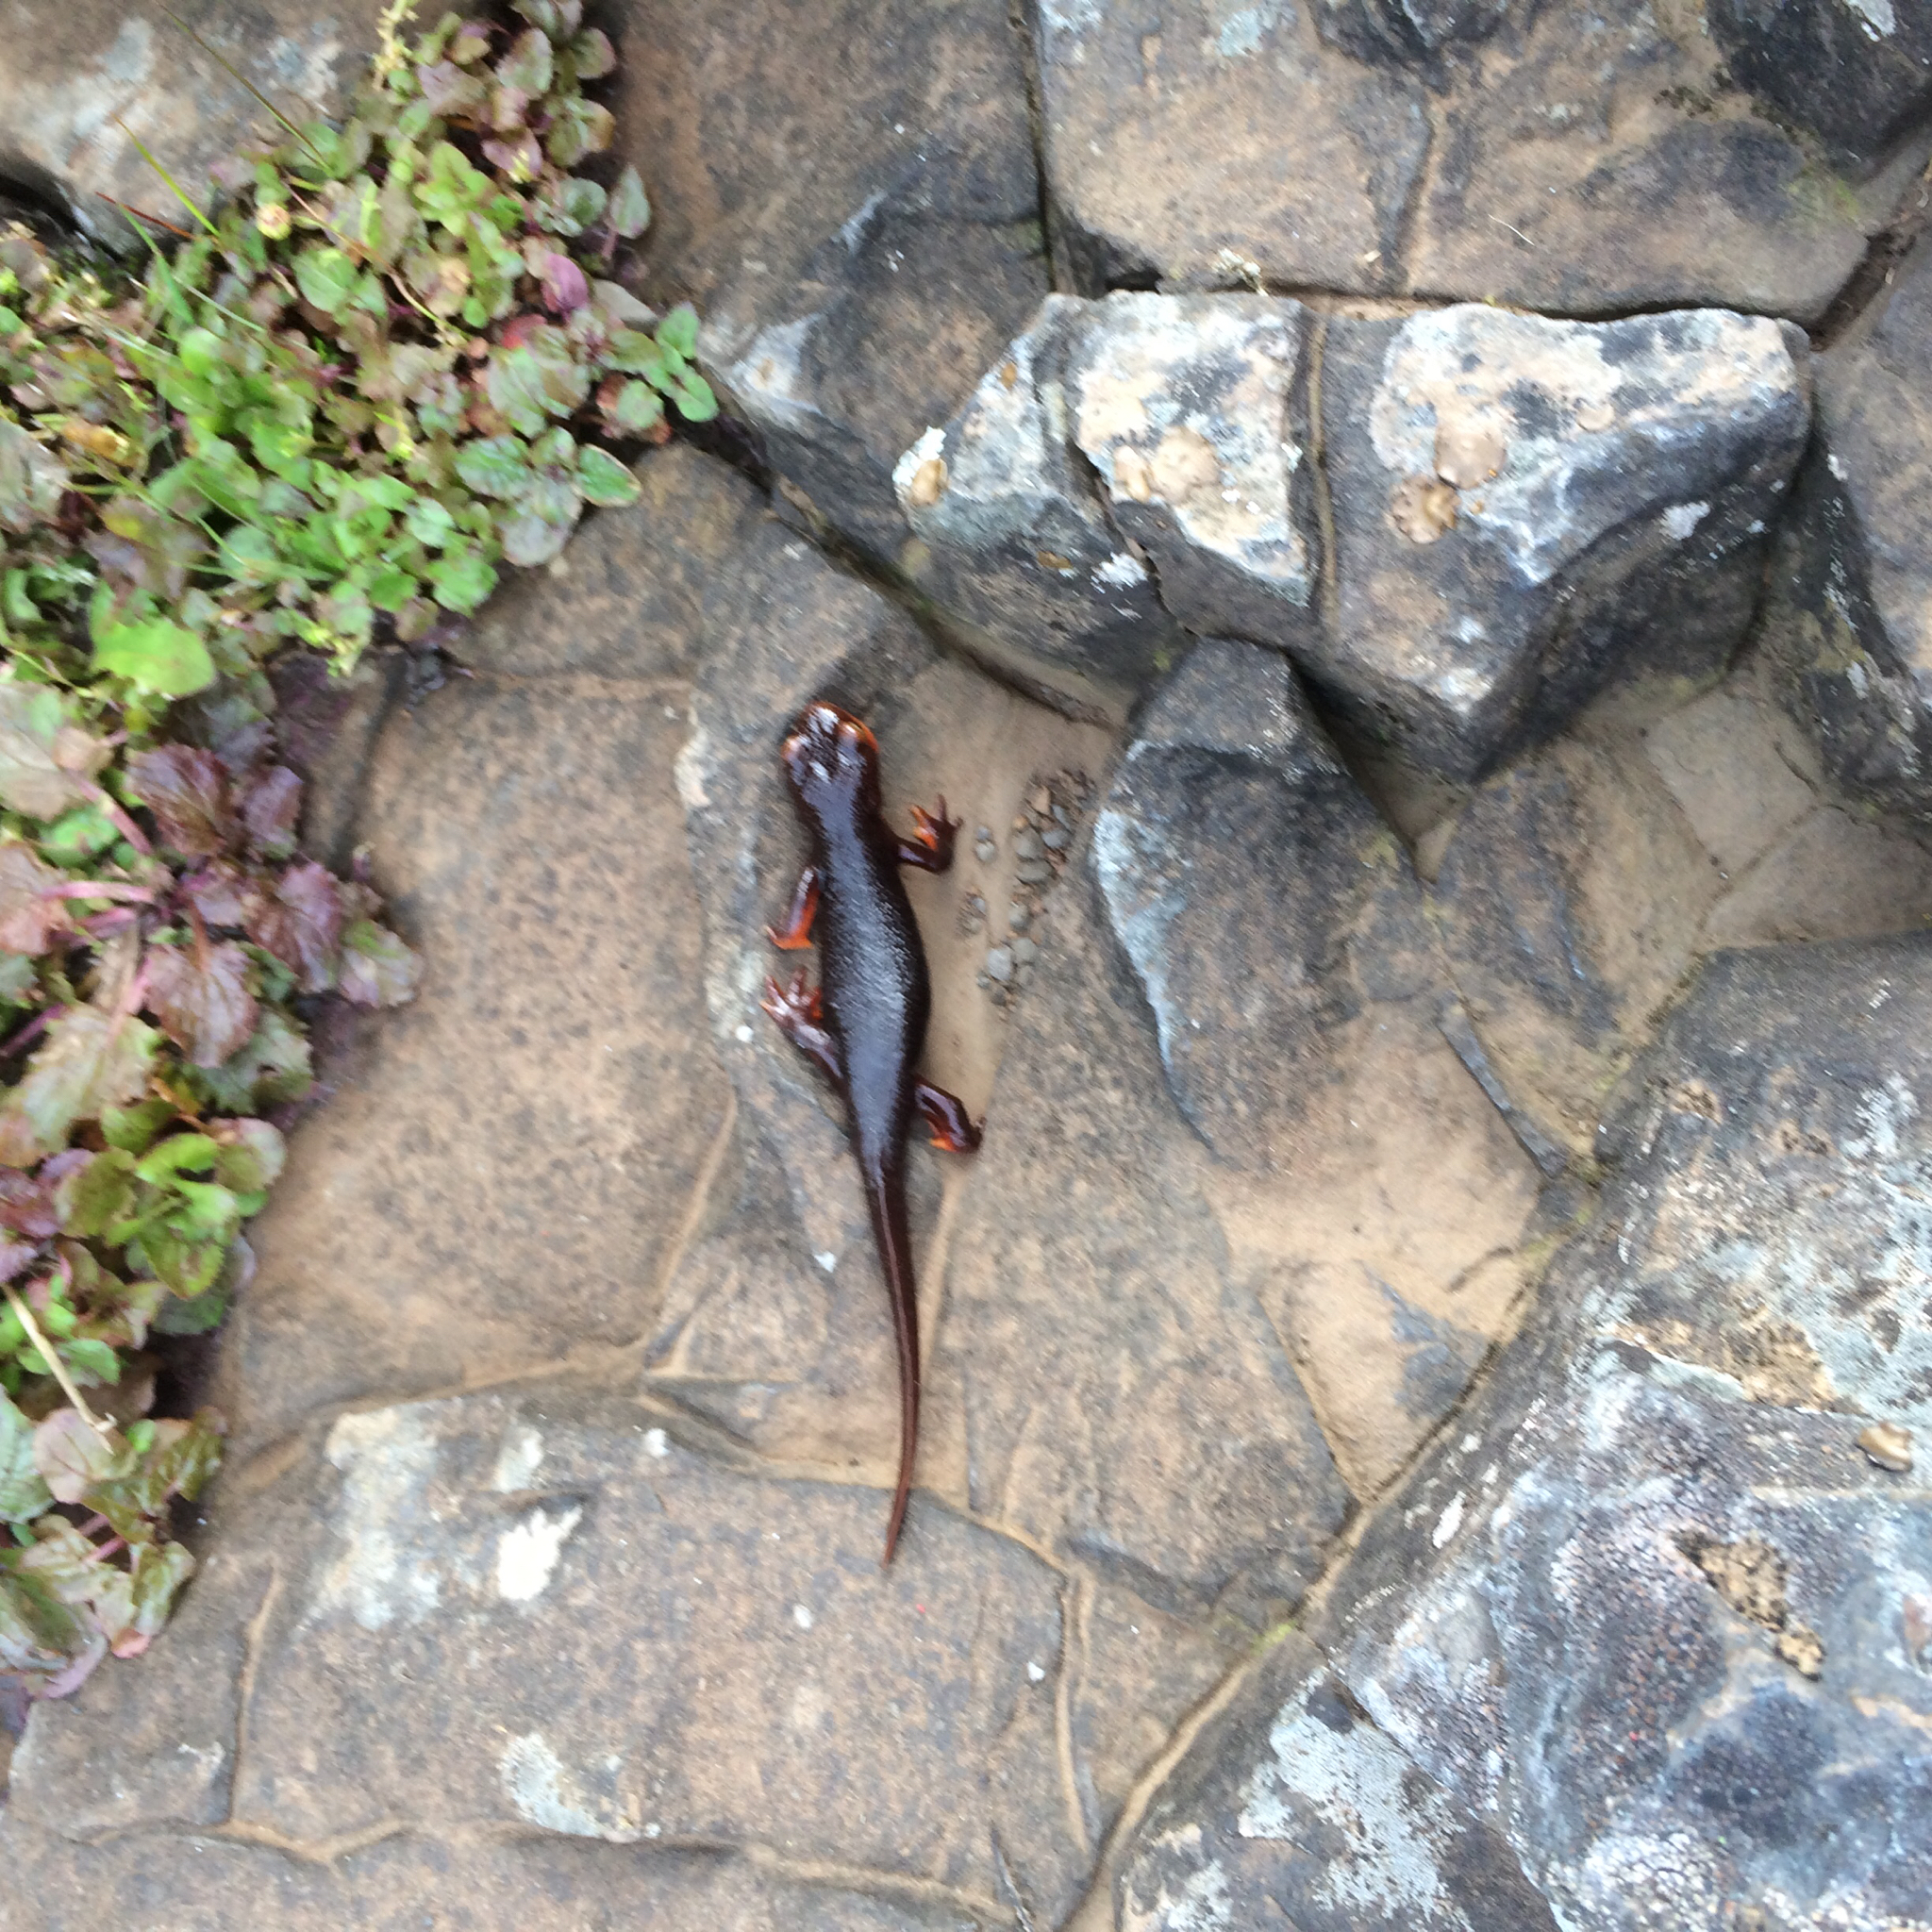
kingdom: Animalia
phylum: Chordata
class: Amphibia
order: Caudata
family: Salamandridae
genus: Taricha
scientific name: Taricha sierrae
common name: Sierra newt
